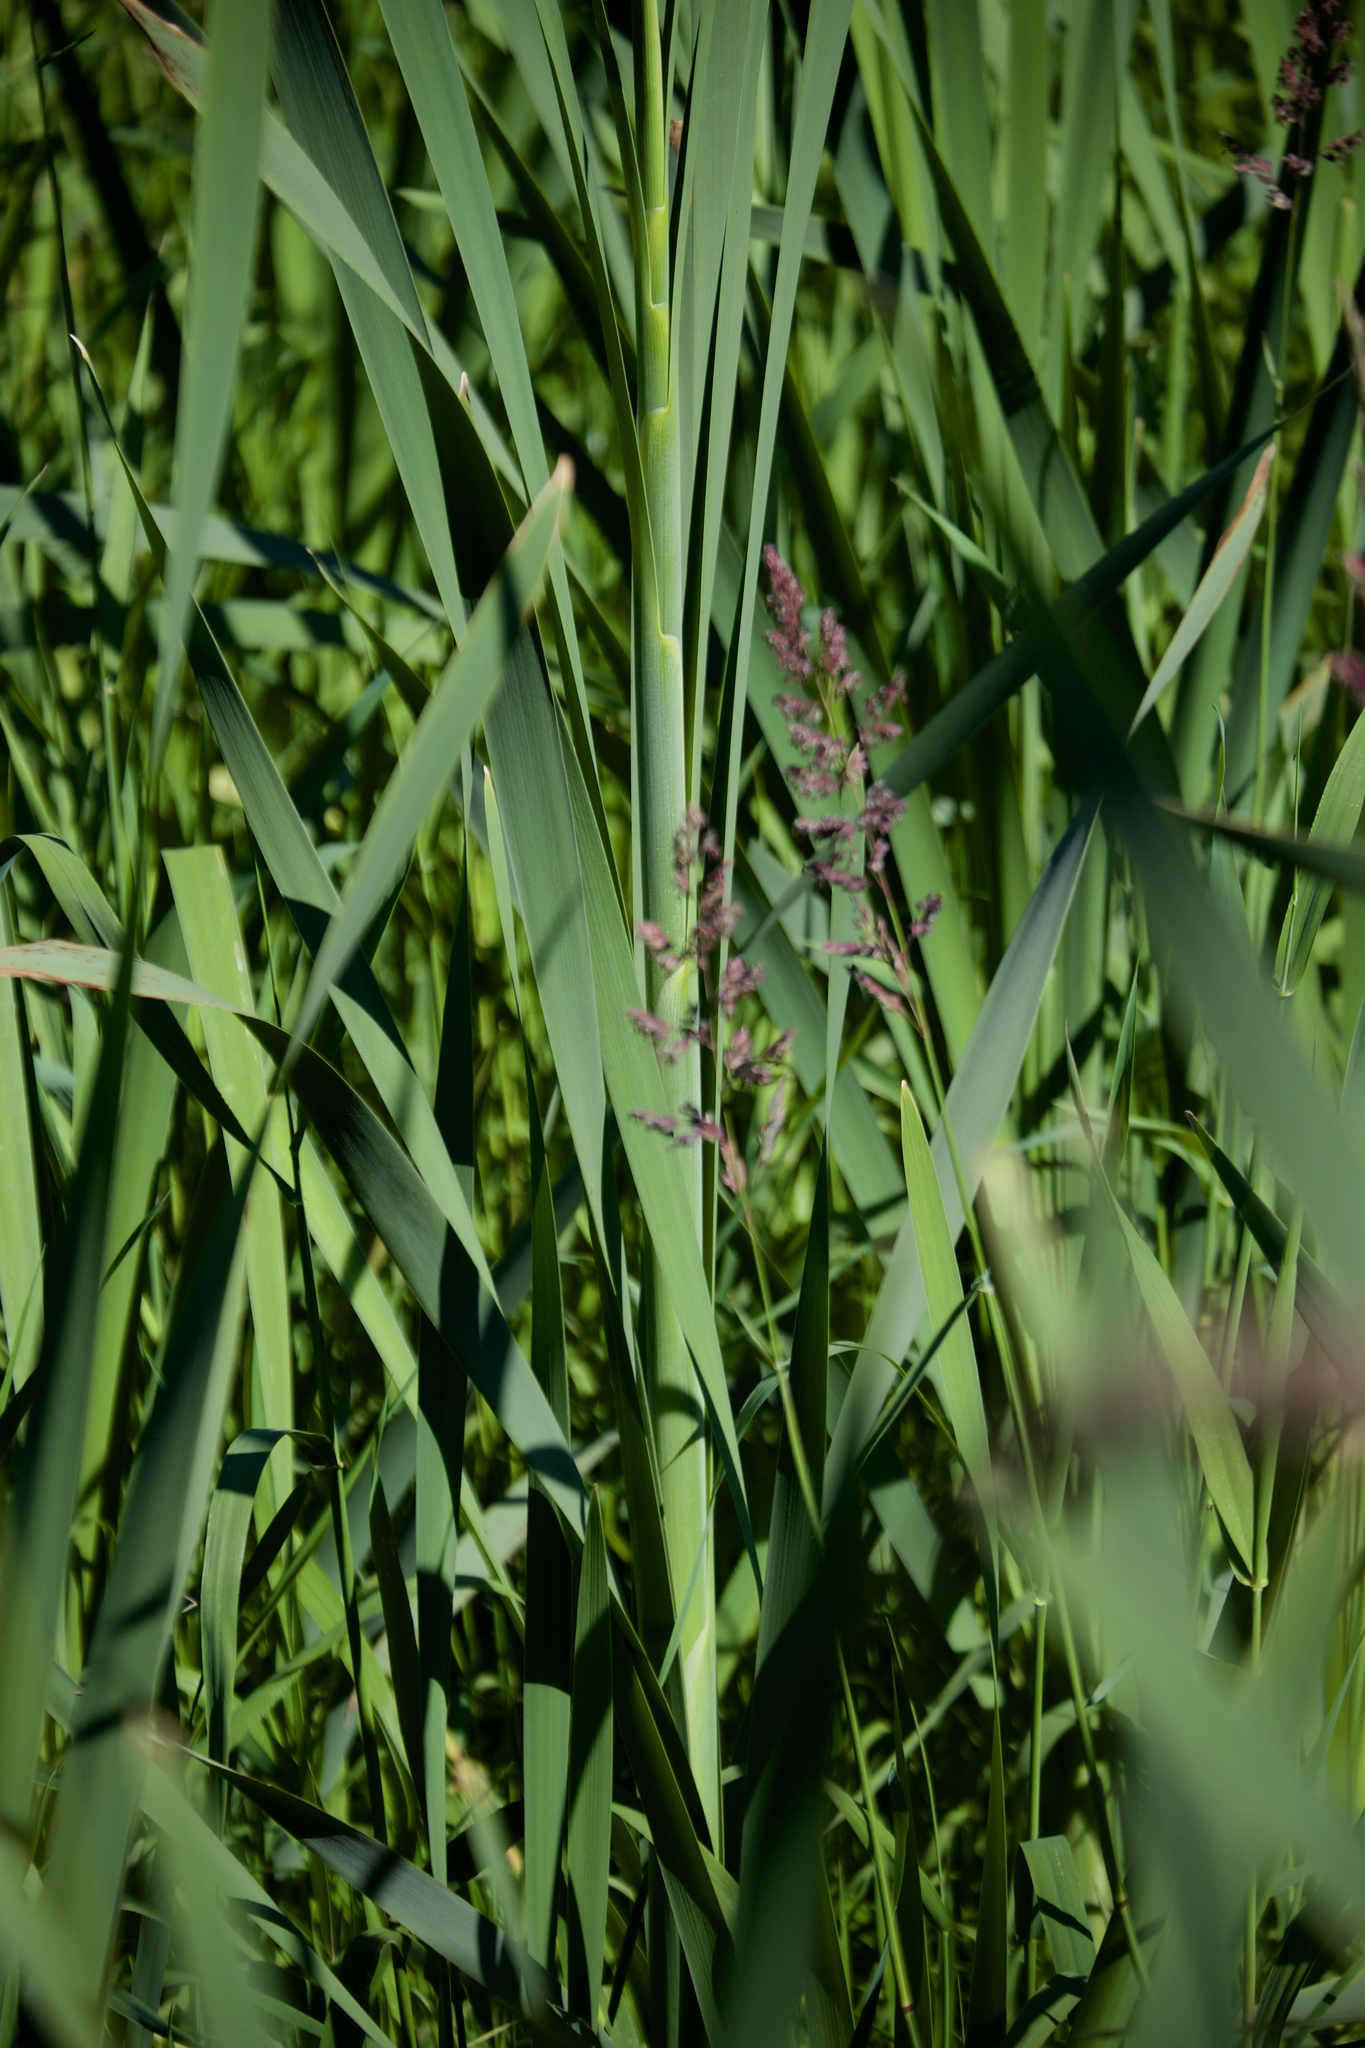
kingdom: Plantae
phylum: Tracheophyta
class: Liliopsida
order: Poales
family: Typhaceae
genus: Typha
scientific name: Typha latifolia
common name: Broadleaf cattail
